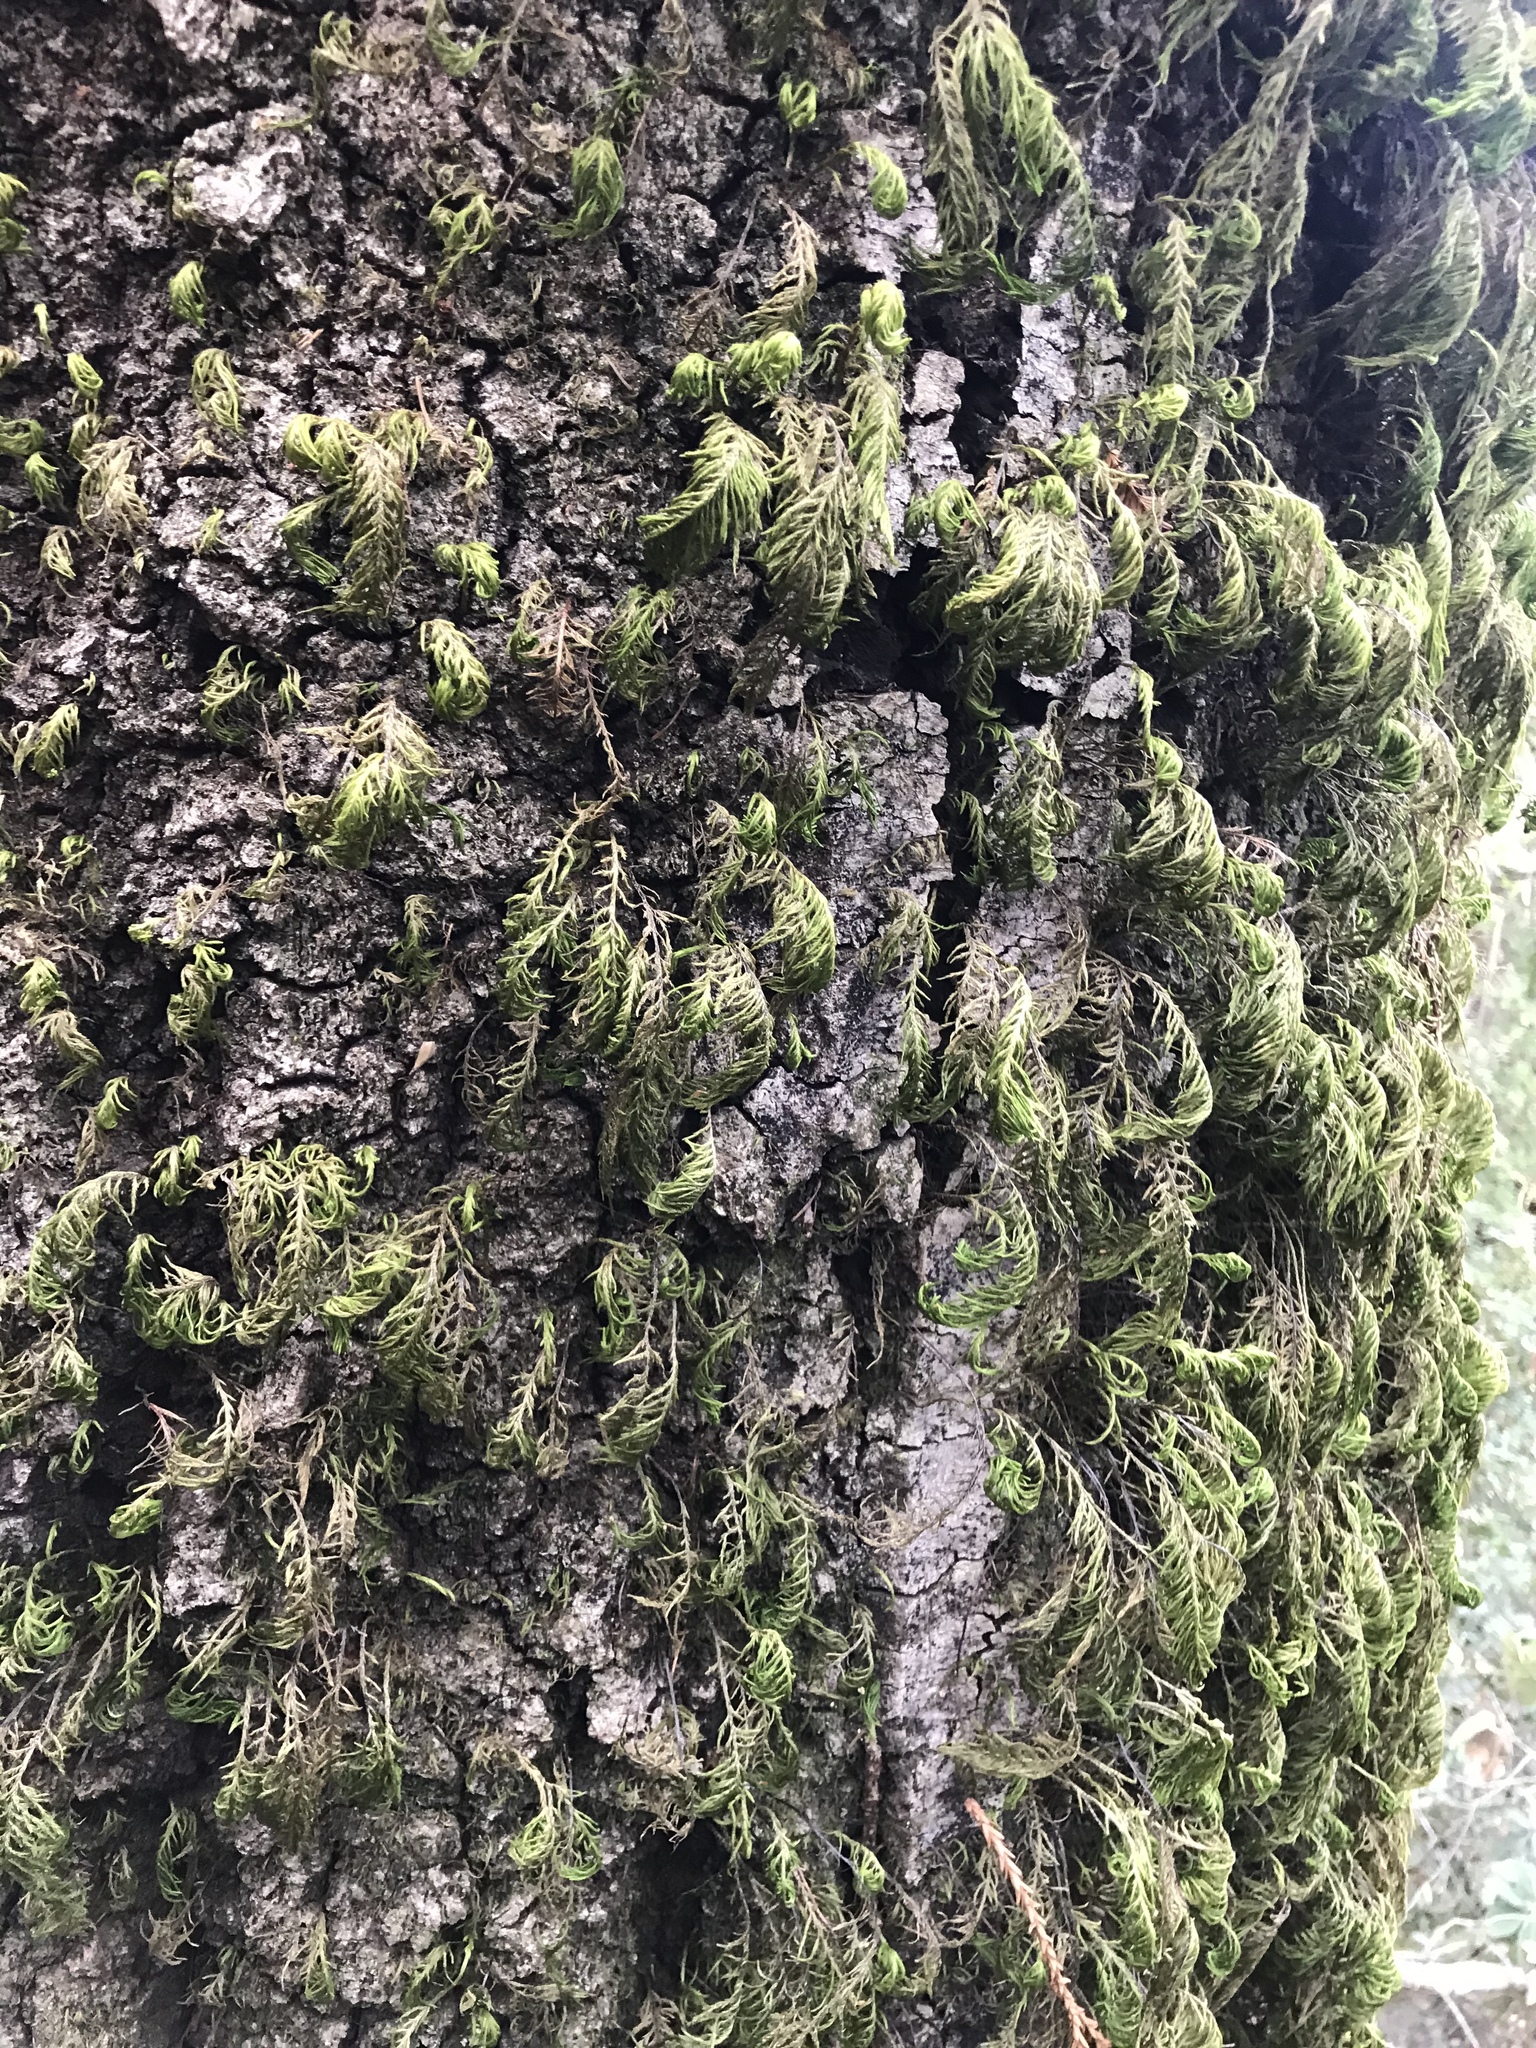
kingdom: Plantae
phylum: Bryophyta
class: Bryopsida
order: Hypnales
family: Cryphaeaceae
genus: Dendroalsia
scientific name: Dendroalsia abietina
